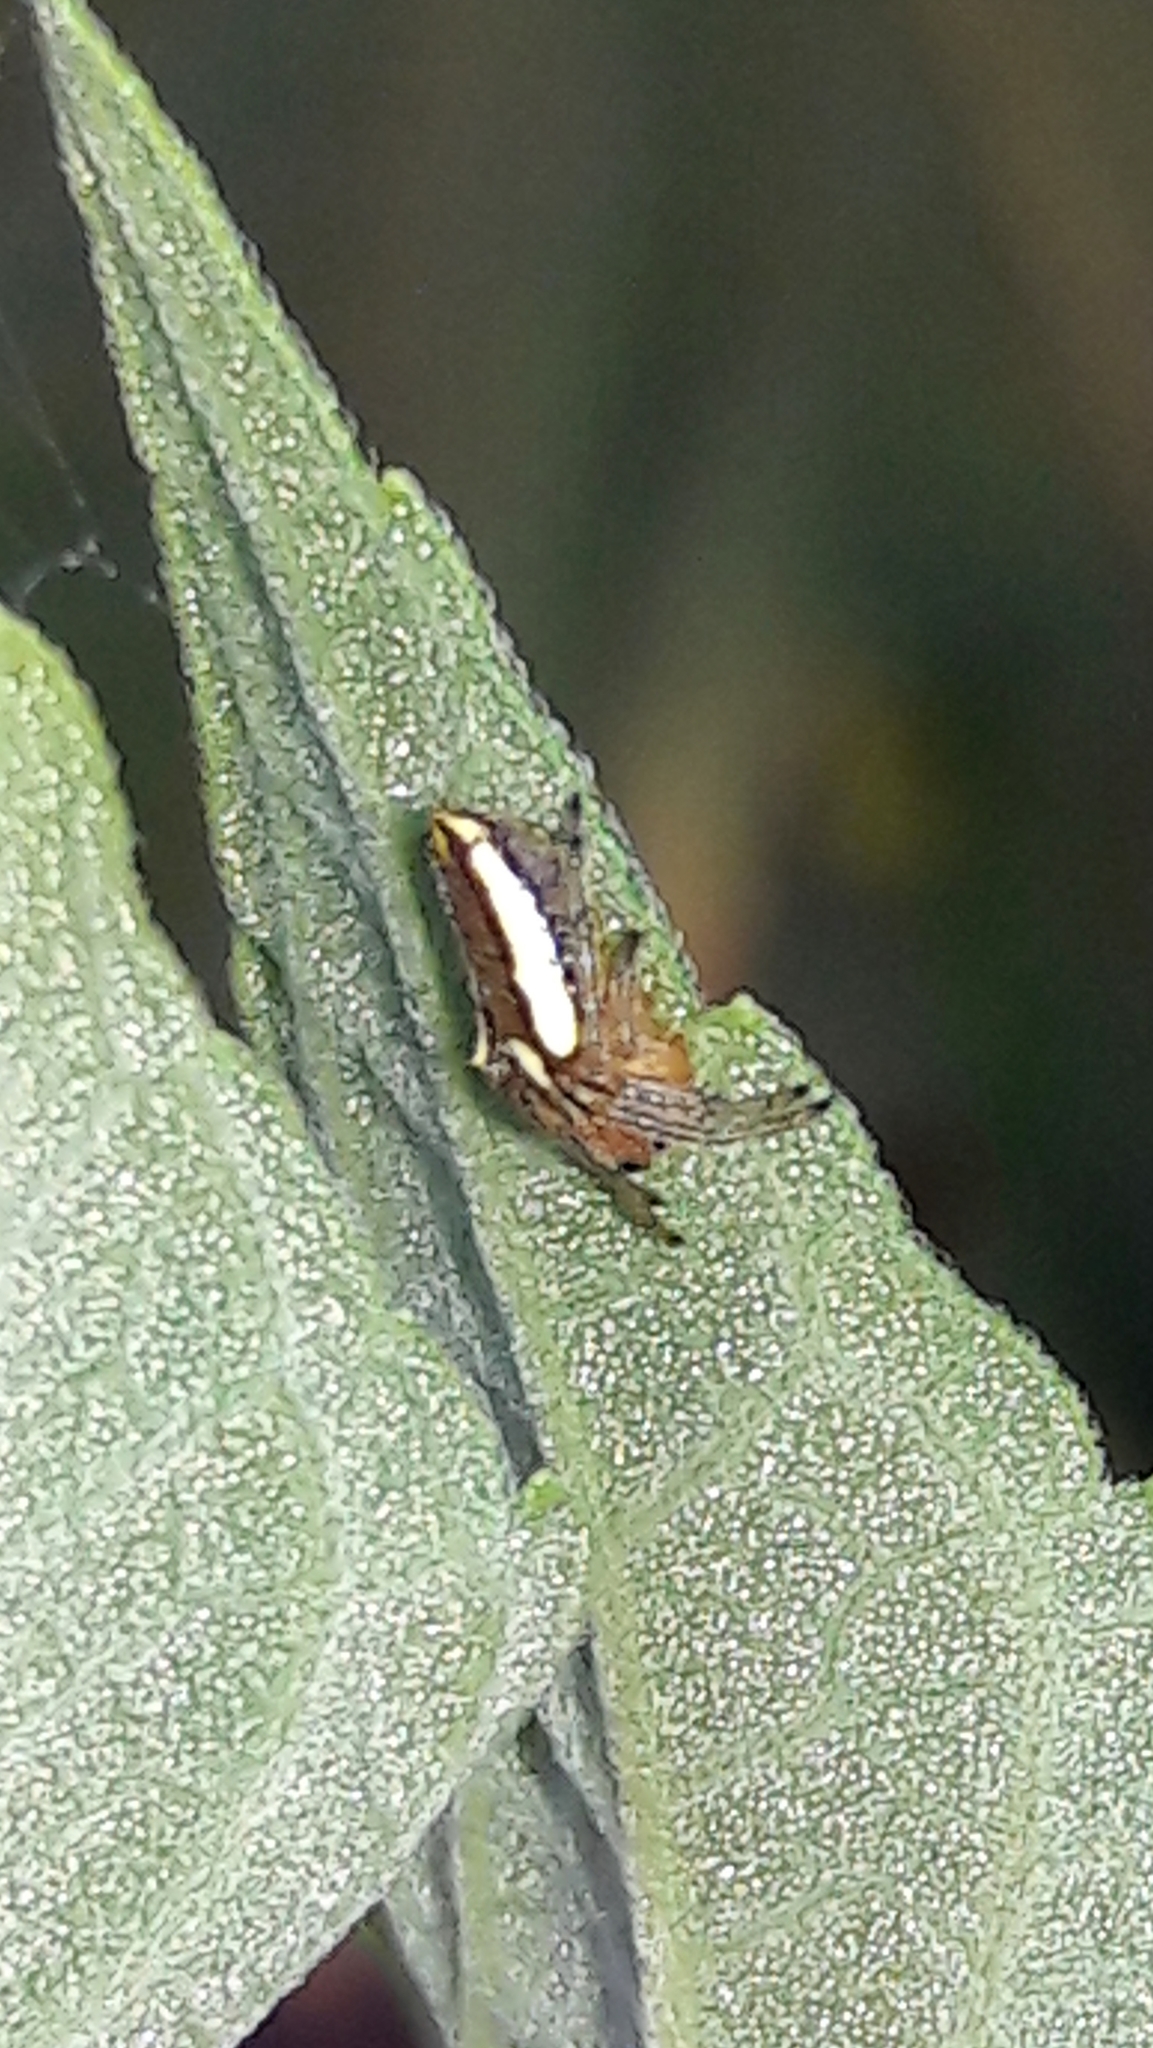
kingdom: Animalia
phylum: Arthropoda
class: Arachnida
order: Araneae
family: Araneidae
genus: Alpaida
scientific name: Alpaida bicornuta
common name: Orb weavers
